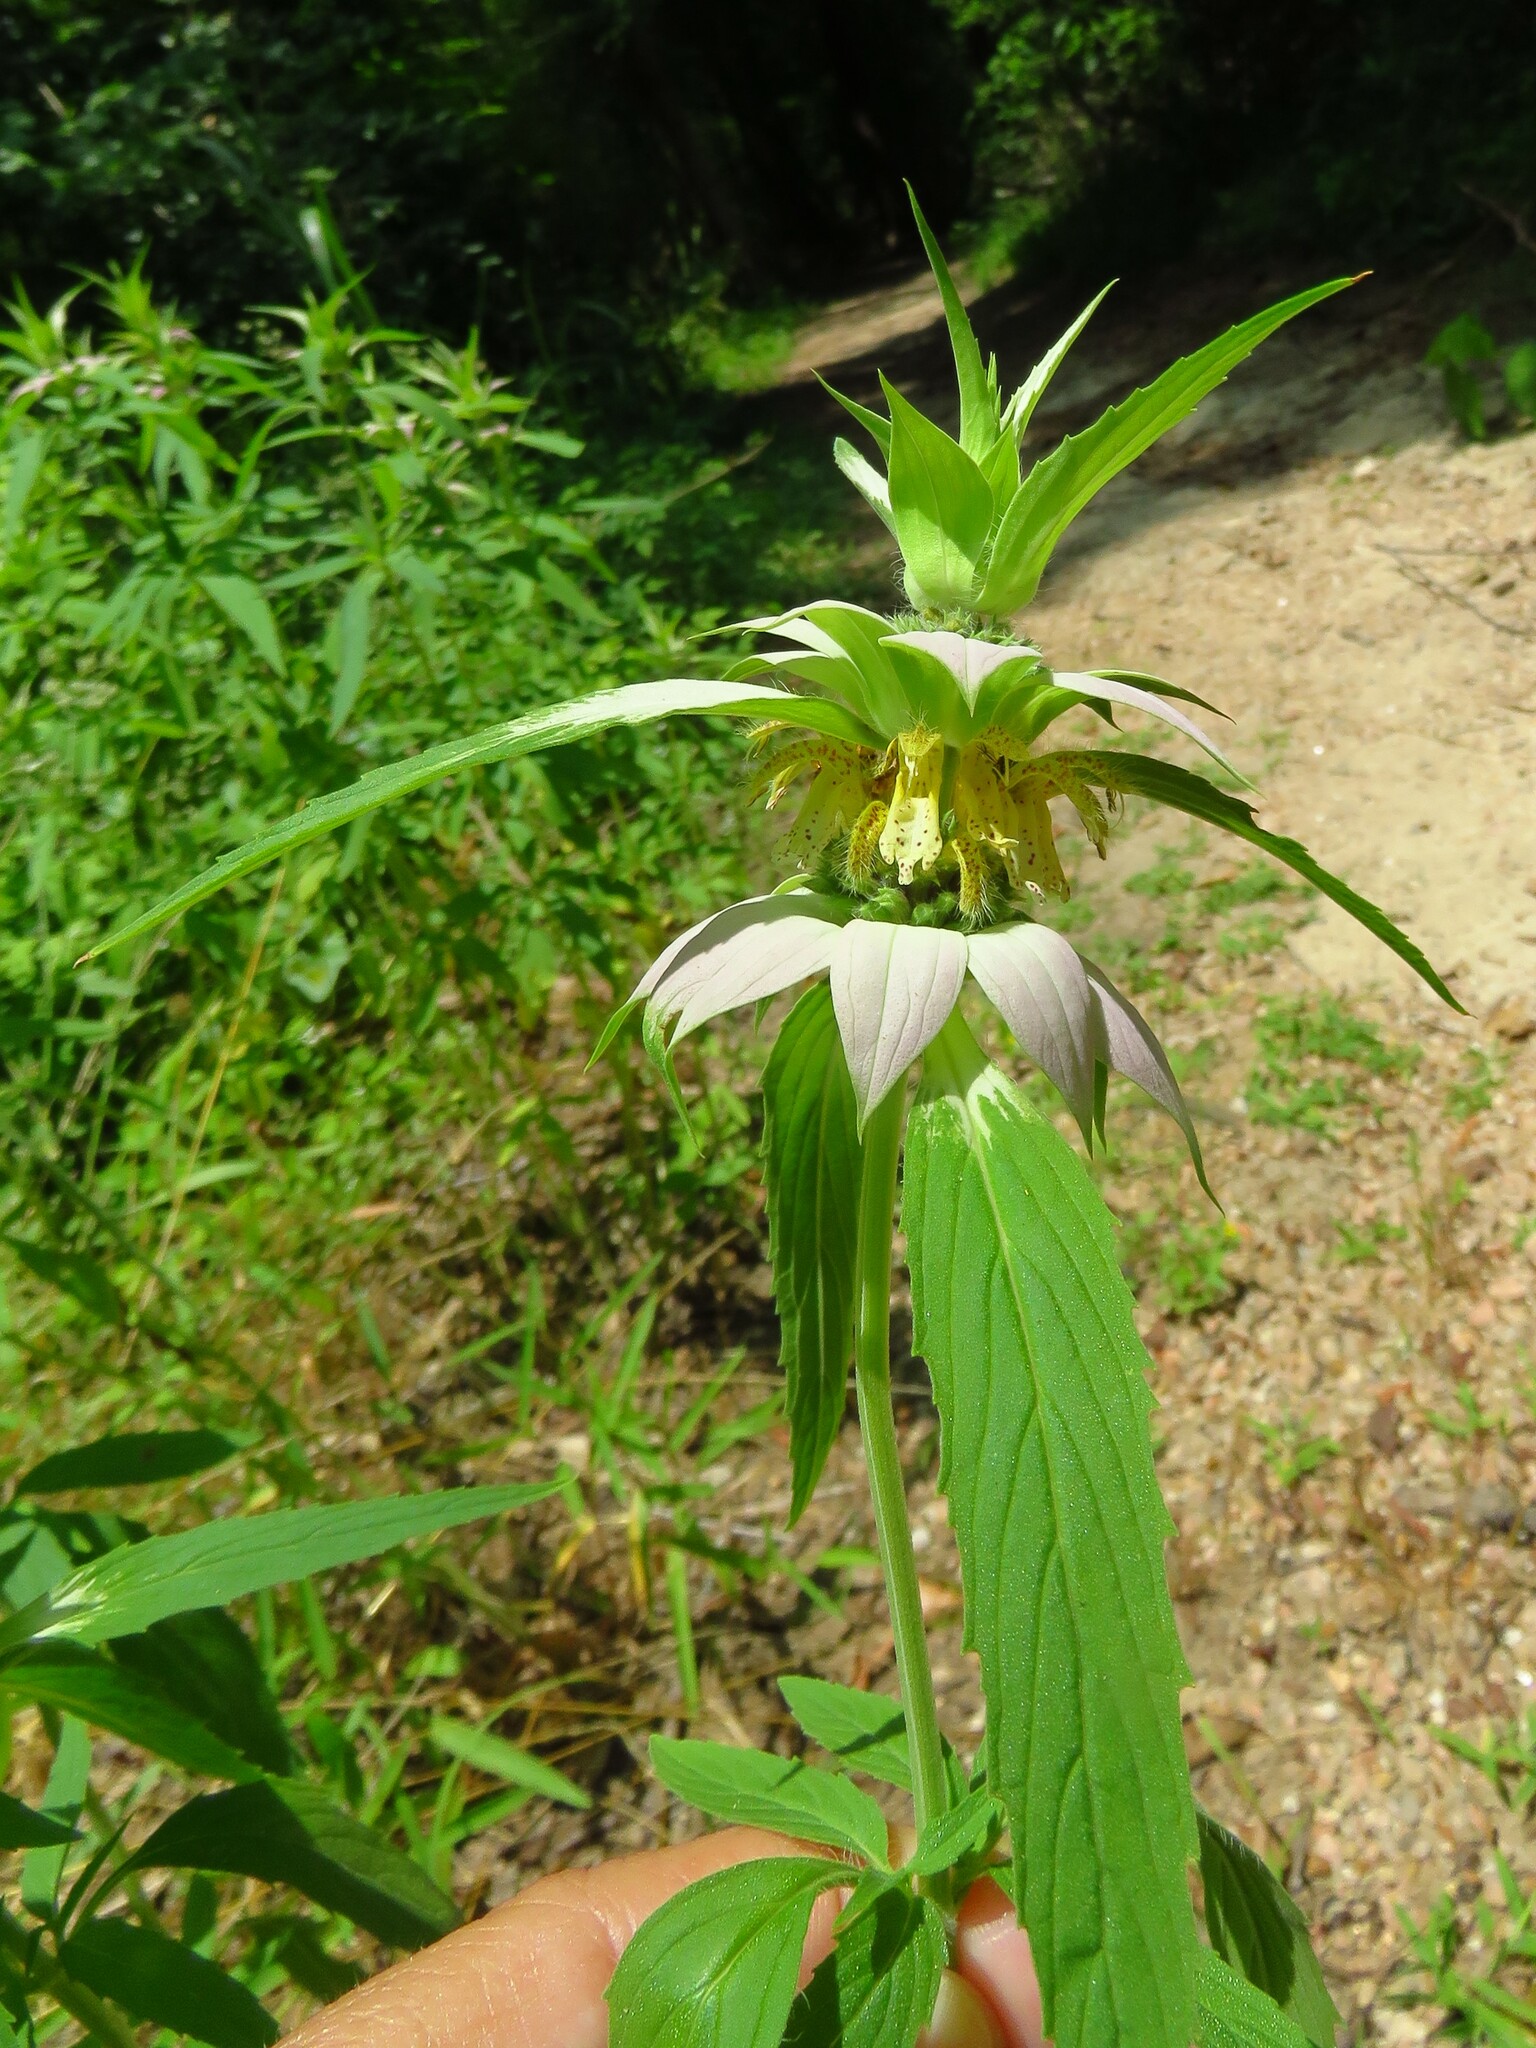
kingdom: Plantae
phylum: Tracheophyta
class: Magnoliopsida
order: Lamiales
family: Lamiaceae
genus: Monarda
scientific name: Monarda punctata
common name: Dotted monarda
